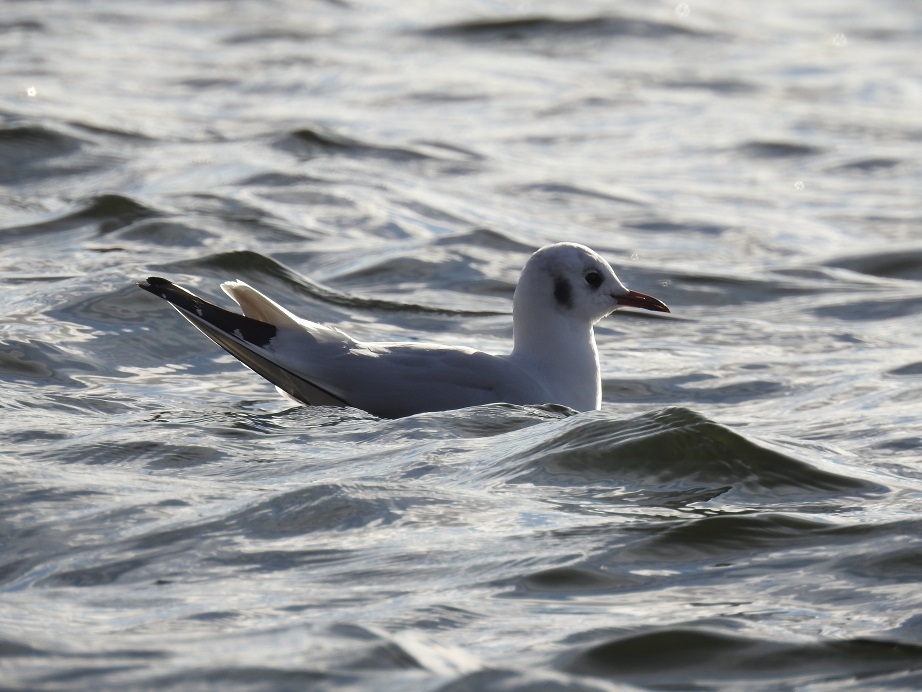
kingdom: Animalia
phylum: Chordata
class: Aves
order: Charadriiformes
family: Laridae
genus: Chroicocephalus
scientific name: Chroicocephalus ridibundus
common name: Black-headed gull
